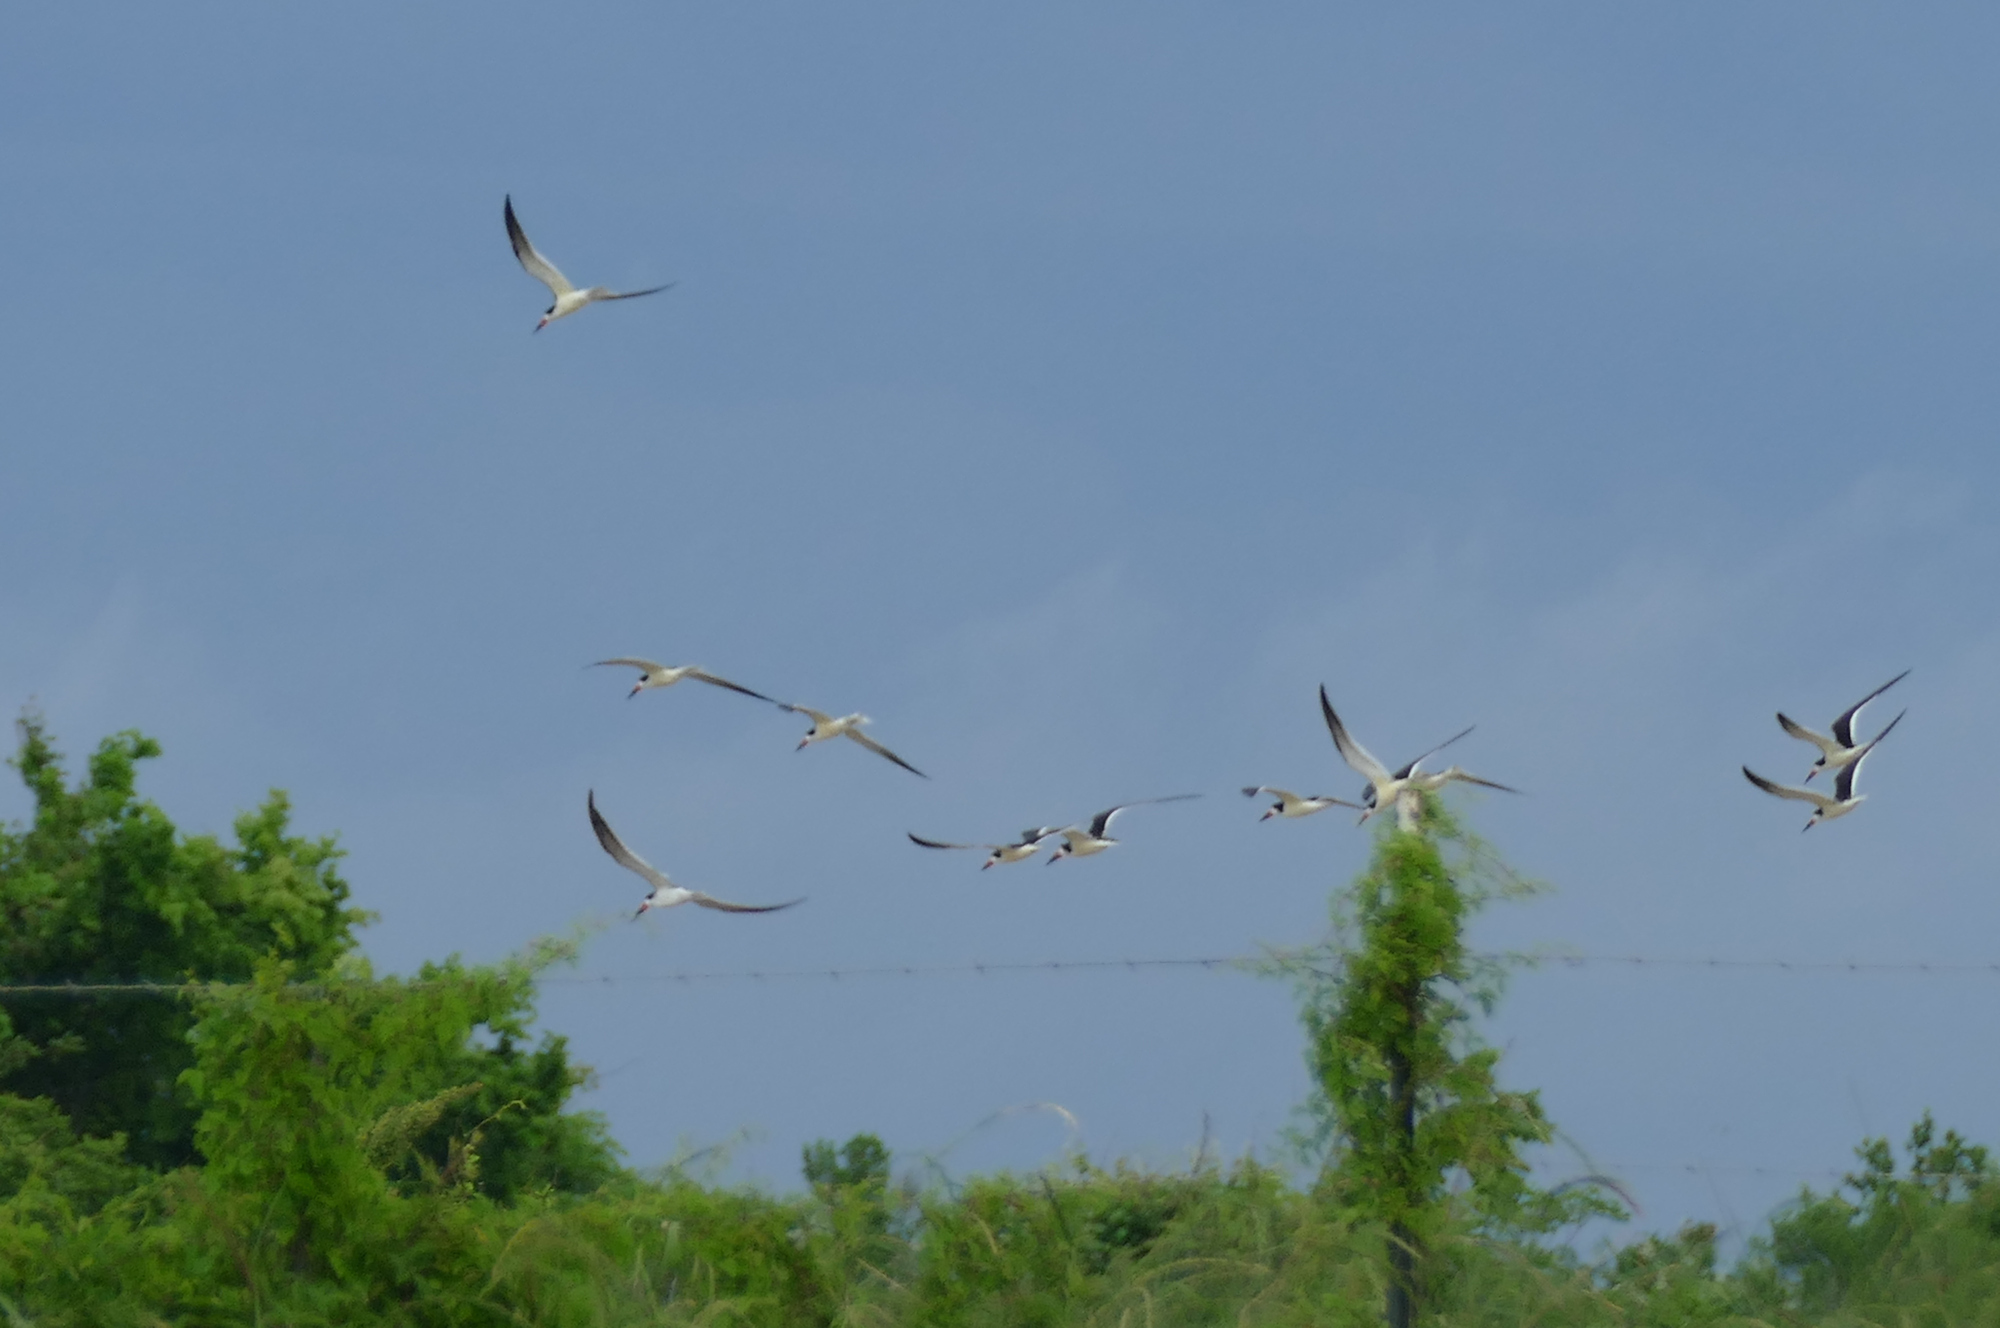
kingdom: Animalia
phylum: Chordata
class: Aves
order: Charadriiformes
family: Laridae
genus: Rynchops
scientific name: Rynchops niger
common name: Black skimmer
